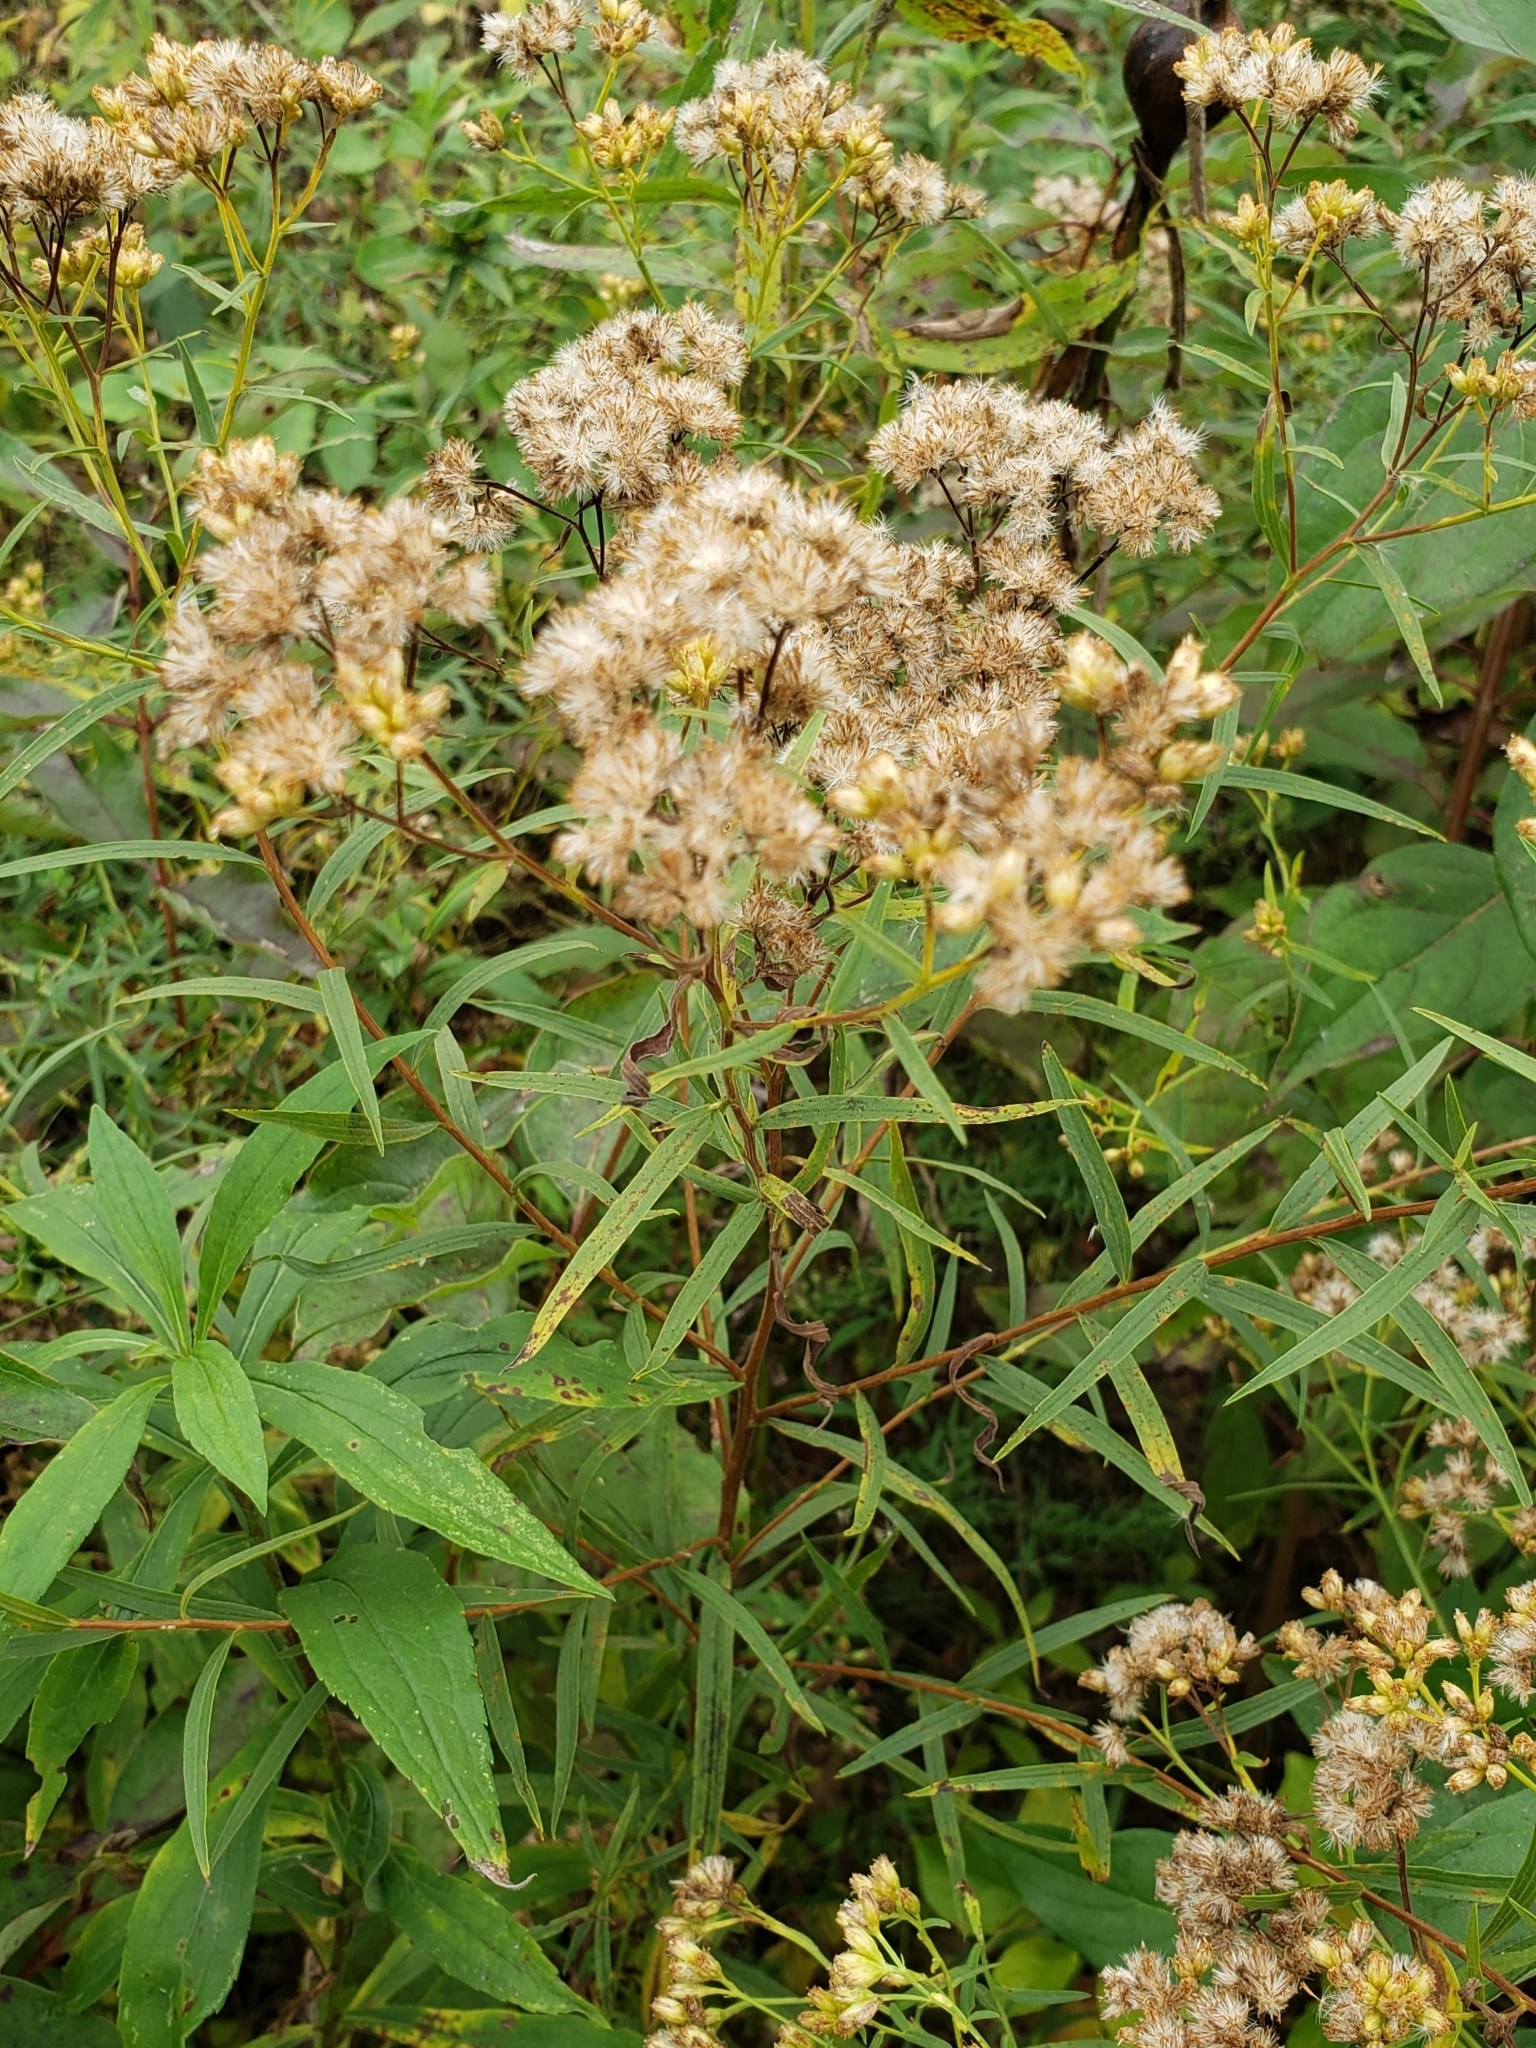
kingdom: Plantae
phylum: Tracheophyta
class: Magnoliopsida
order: Asterales
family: Asteraceae
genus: Euthamia
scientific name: Euthamia graminifolia
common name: Common goldentop
